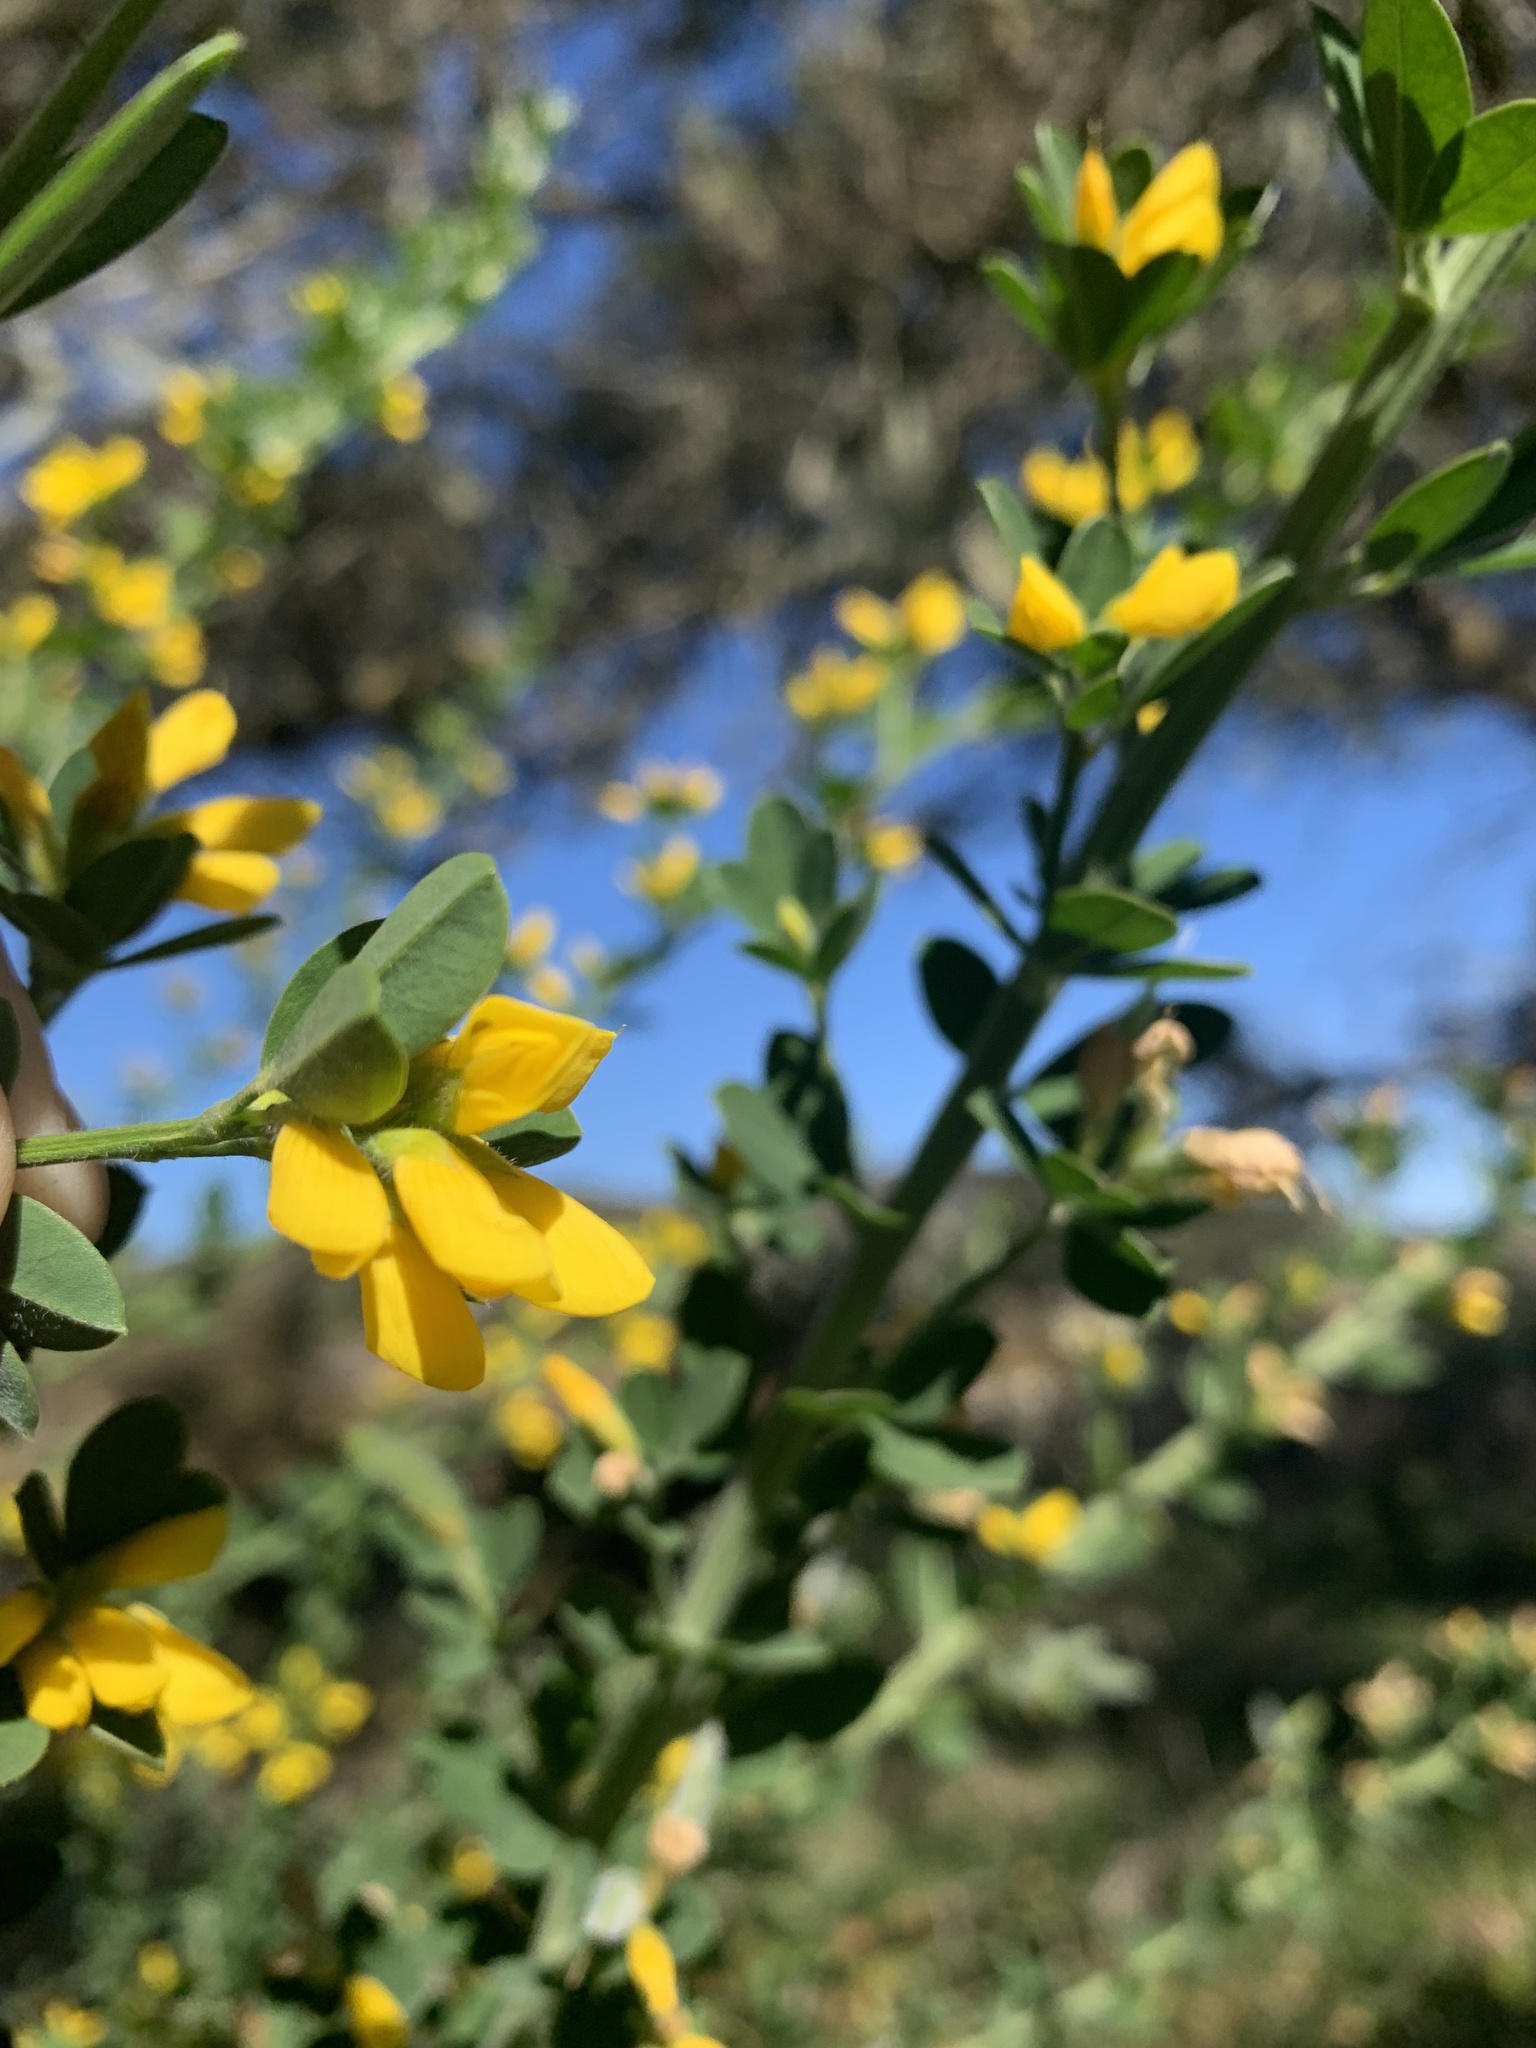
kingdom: Plantae
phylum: Tracheophyta
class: Magnoliopsida
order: Fabales
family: Fabaceae
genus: Genista
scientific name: Genista monspessulana
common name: Montpellier broom
